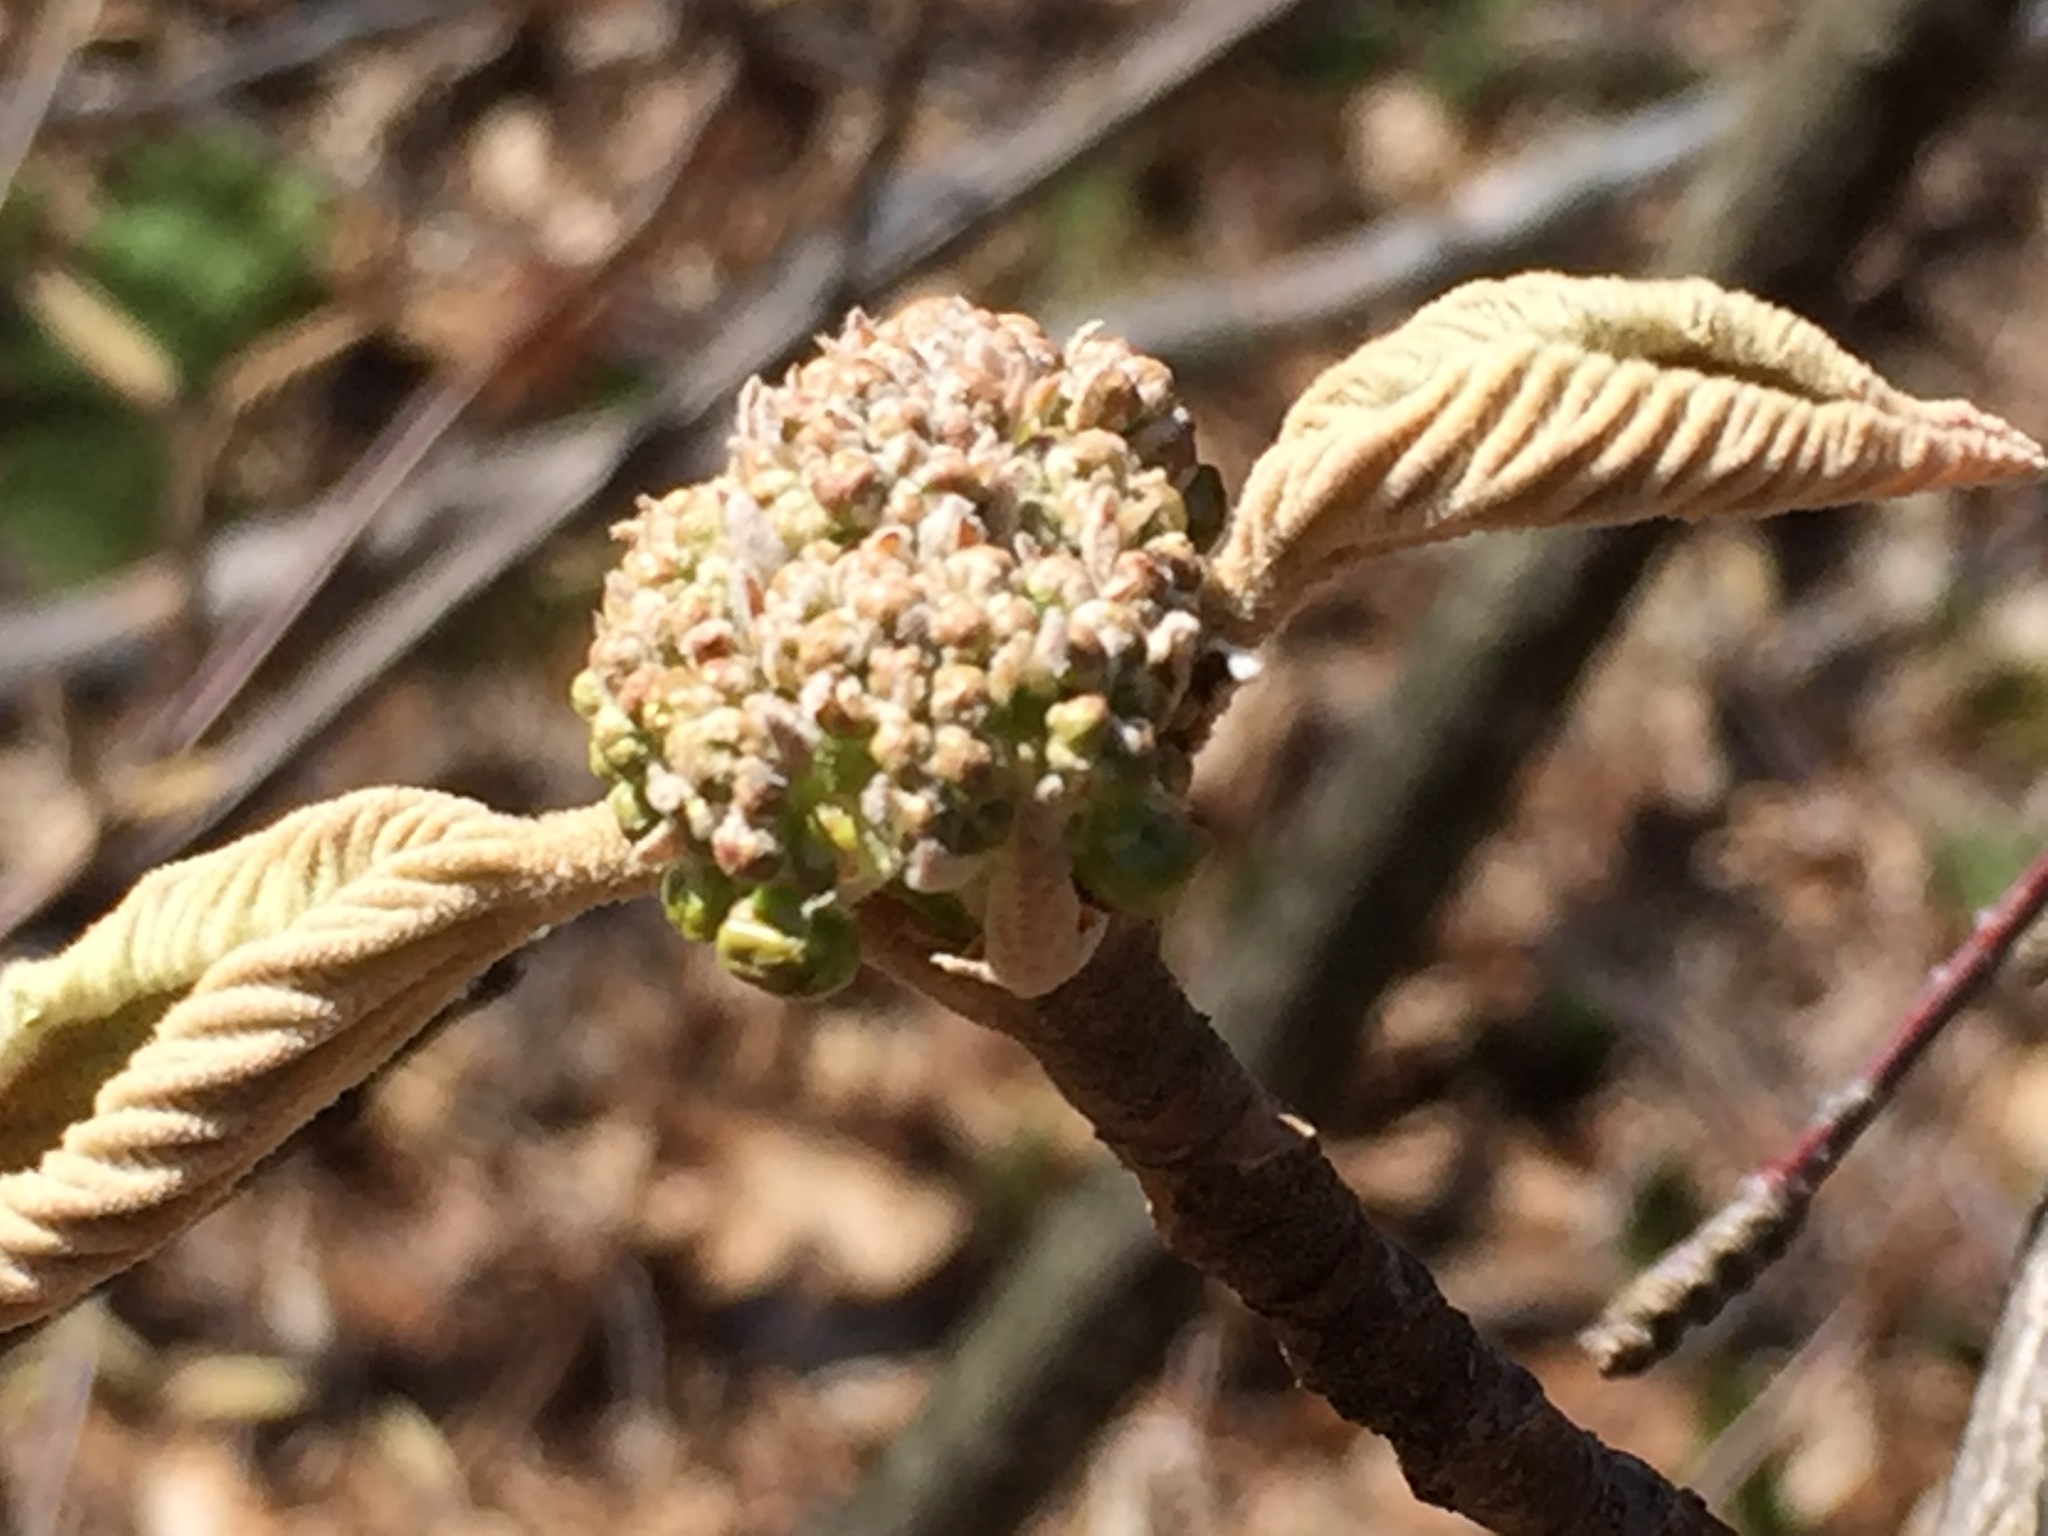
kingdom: Plantae
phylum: Tracheophyta
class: Magnoliopsida
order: Dipsacales
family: Viburnaceae
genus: Viburnum
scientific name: Viburnum lantanoides
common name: Hobblebush
